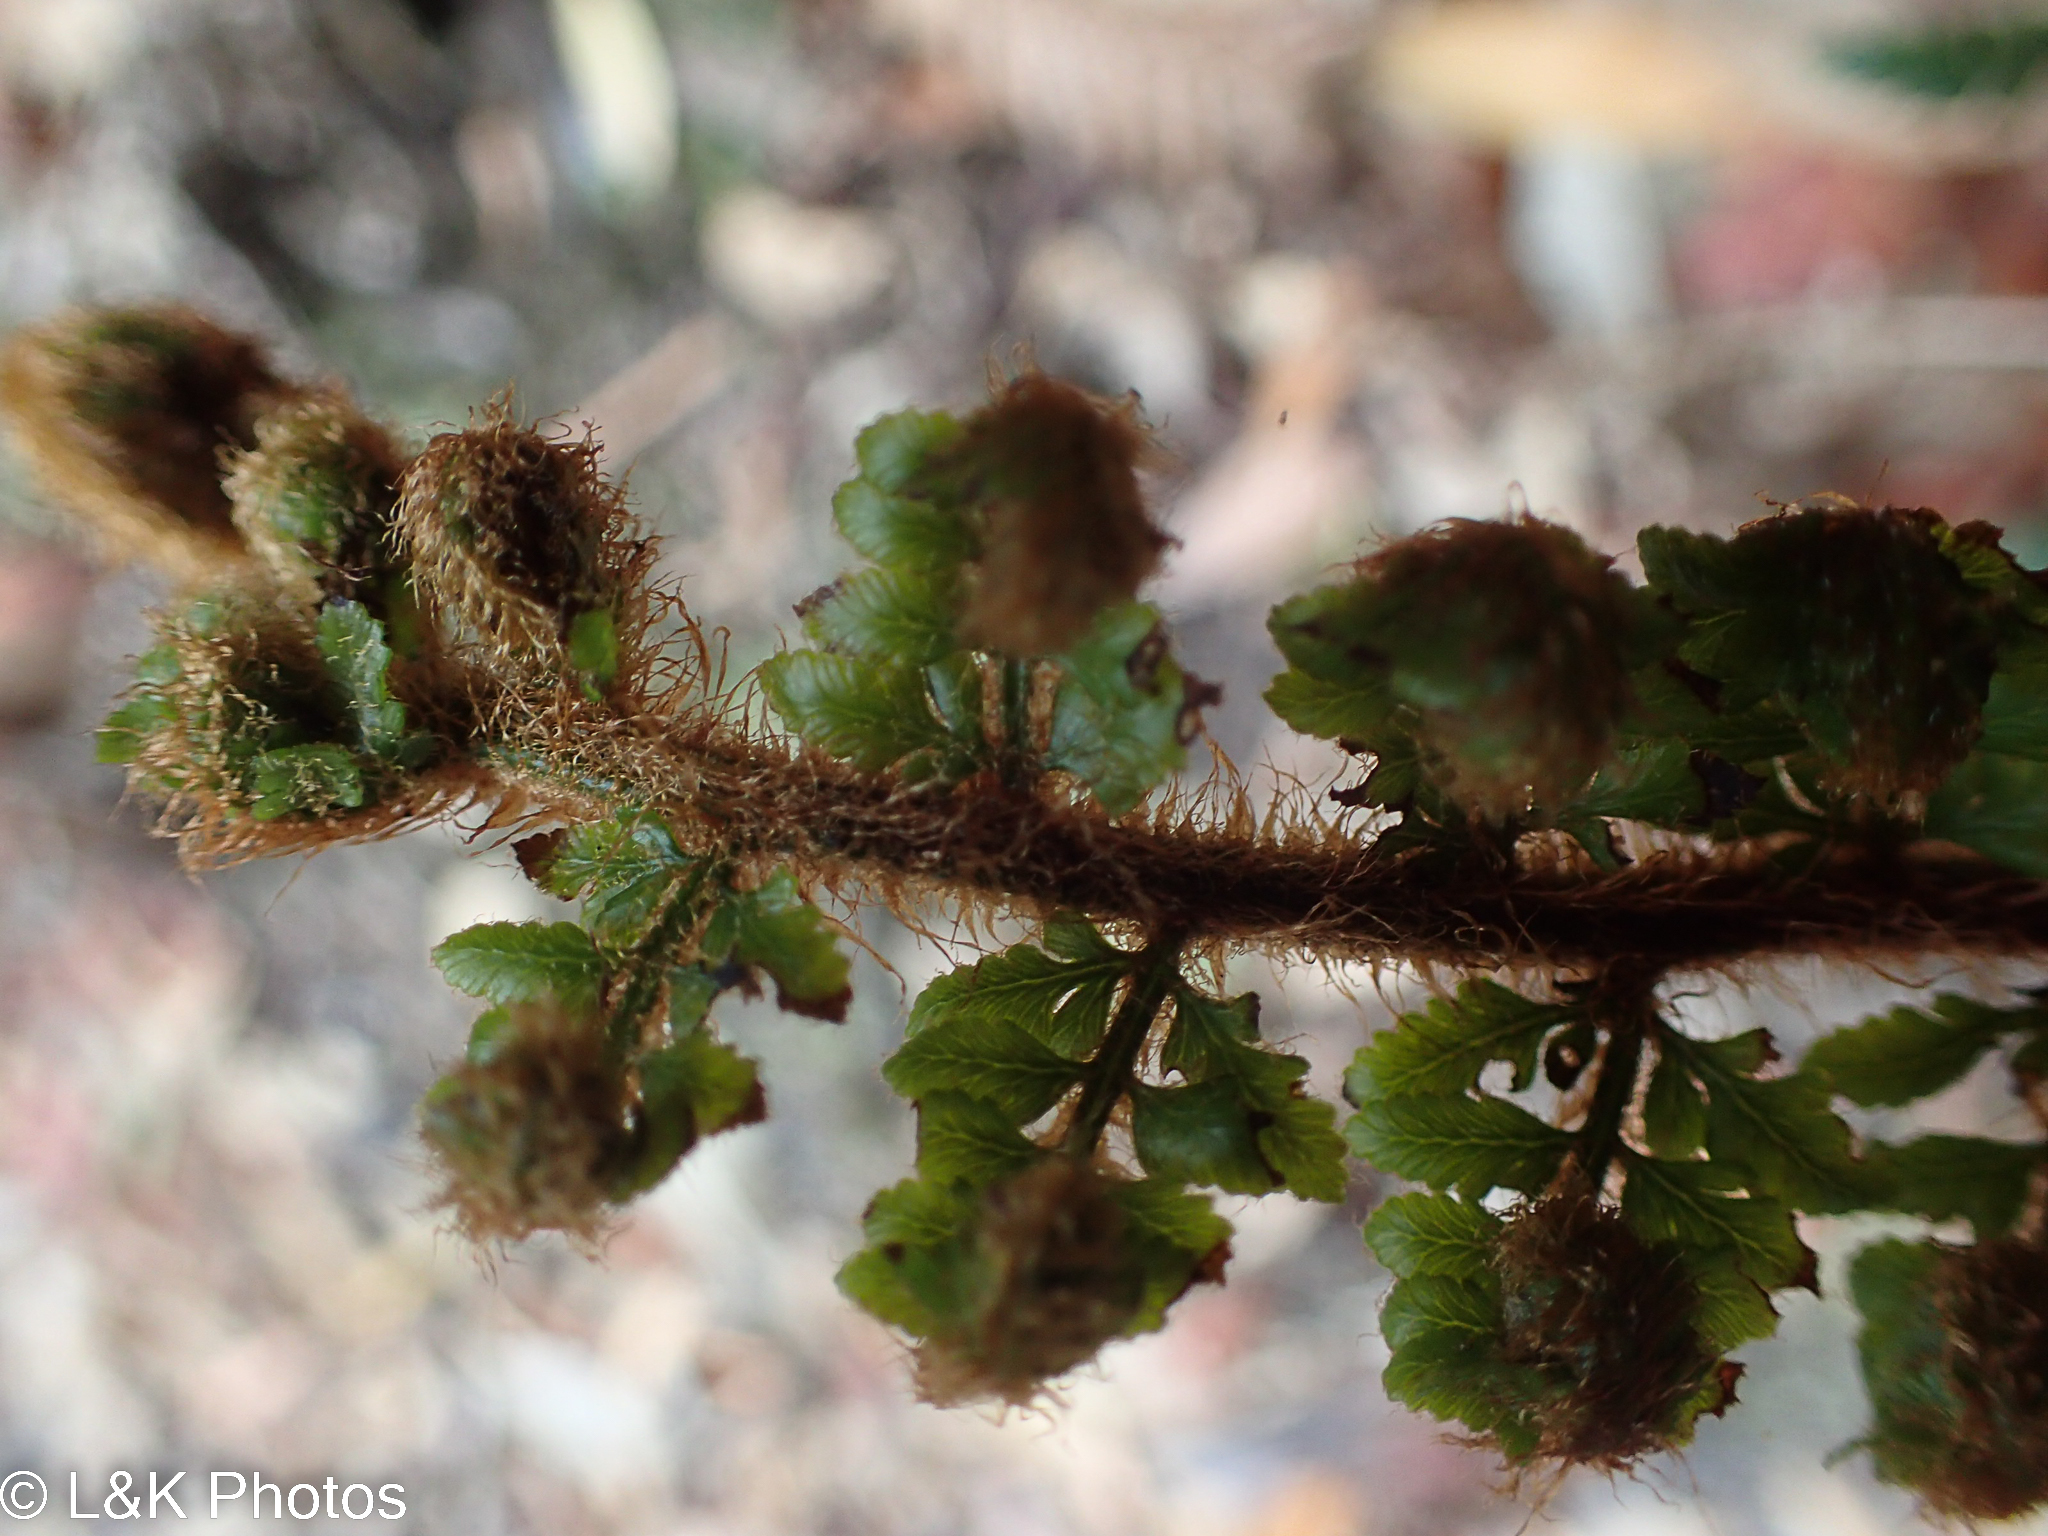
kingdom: Plantae
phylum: Tracheophyta
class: Polypodiopsida
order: Polypodiales
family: Dryopteridaceae
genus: Polystichum
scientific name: Polystichum proliferum
